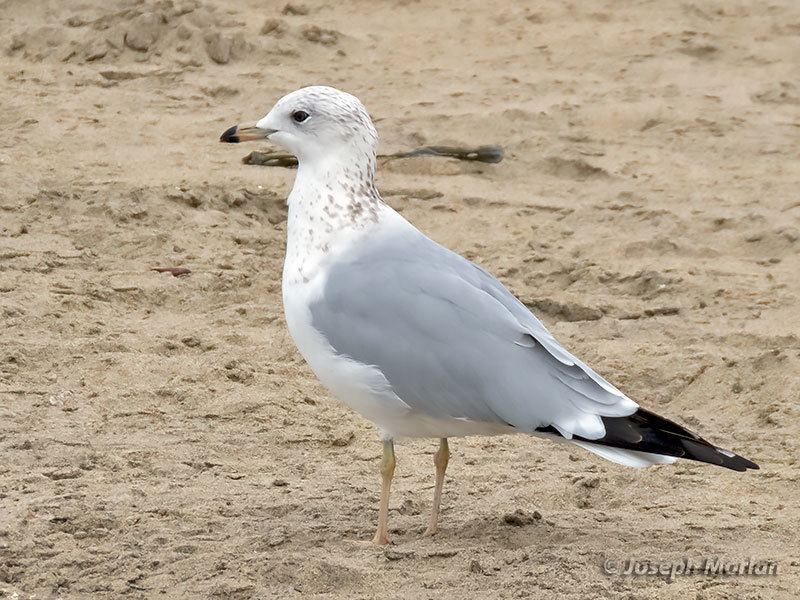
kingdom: Animalia
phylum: Chordata
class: Aves
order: Charadriiformes
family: Laridae
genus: Larus
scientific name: Larus delawarensis
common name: Ring-billed gull
